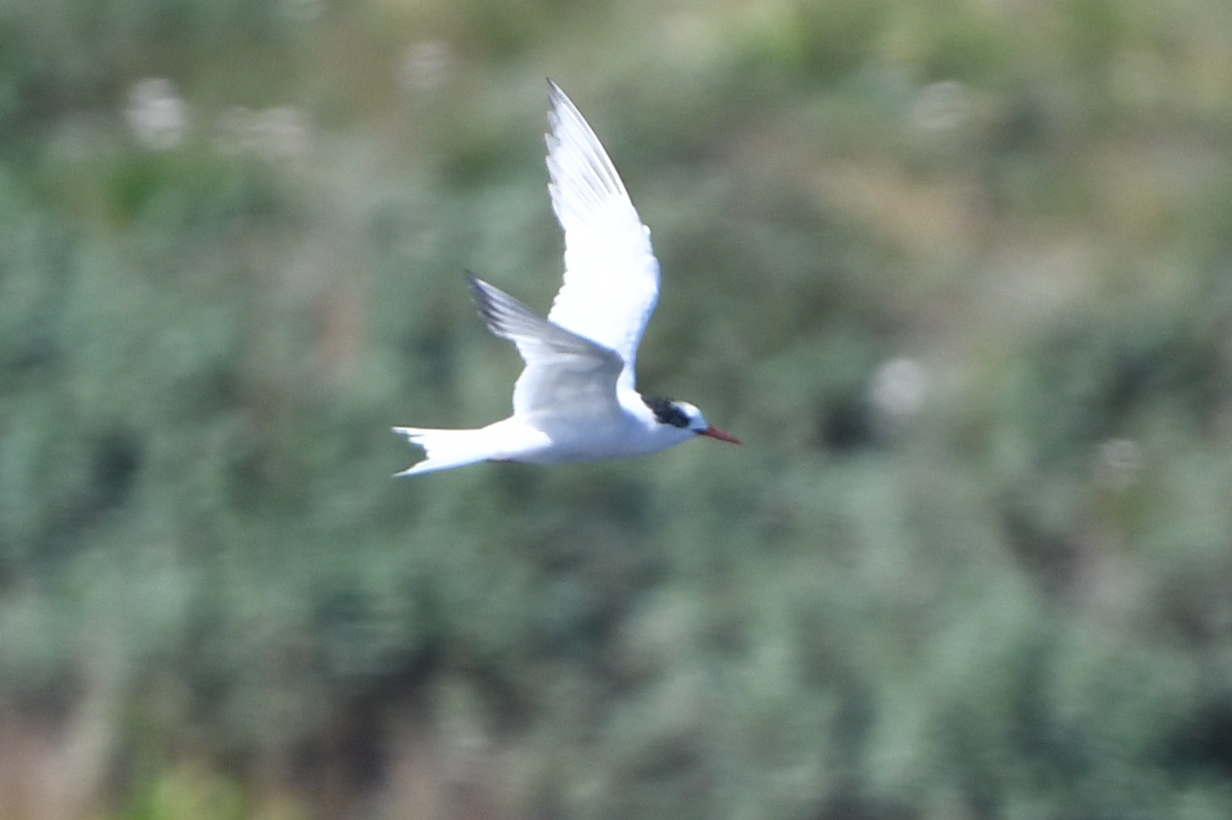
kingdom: Animalia
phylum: Chordata
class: Aves
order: Charadriiformes
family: Laridae
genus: Sterna
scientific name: Sterna hirundinacea
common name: South american tern
